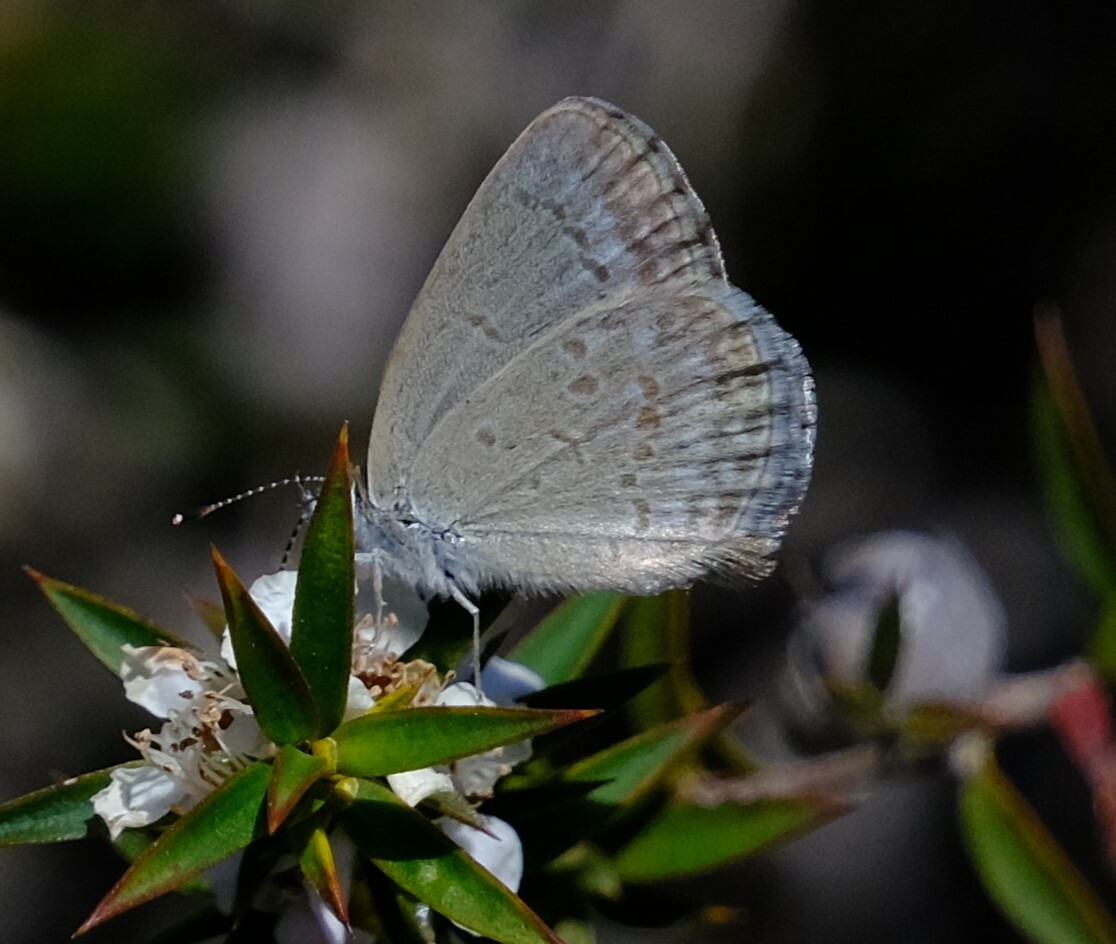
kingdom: Animalia
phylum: Arthropoda
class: Insecta
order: Lepidoptera
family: Lycaenidae
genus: Zizina
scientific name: Zizina labradus
